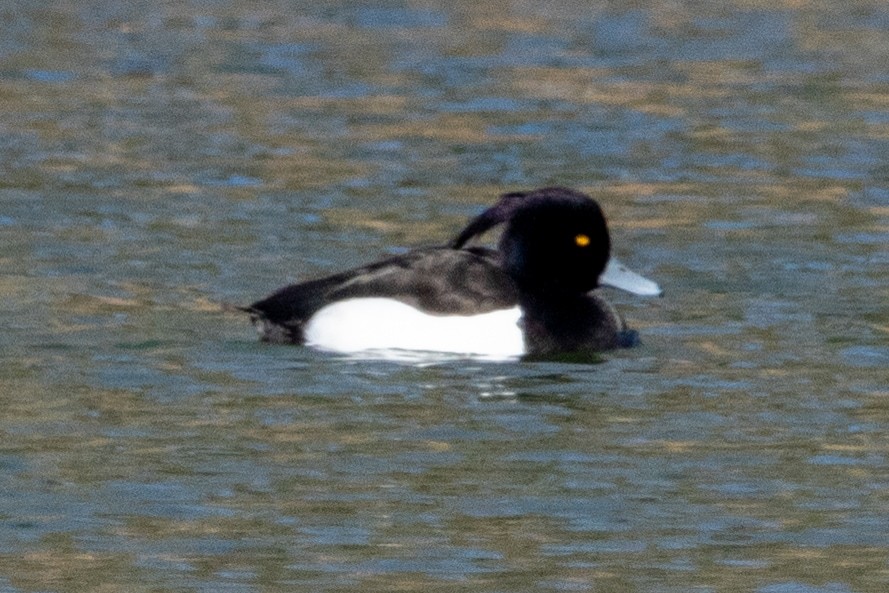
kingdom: Animalia
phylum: Chordata
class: Aves
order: Anseriformes
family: Anatidae
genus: Aythya
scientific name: Aythya fuligula
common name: Tufted duck
